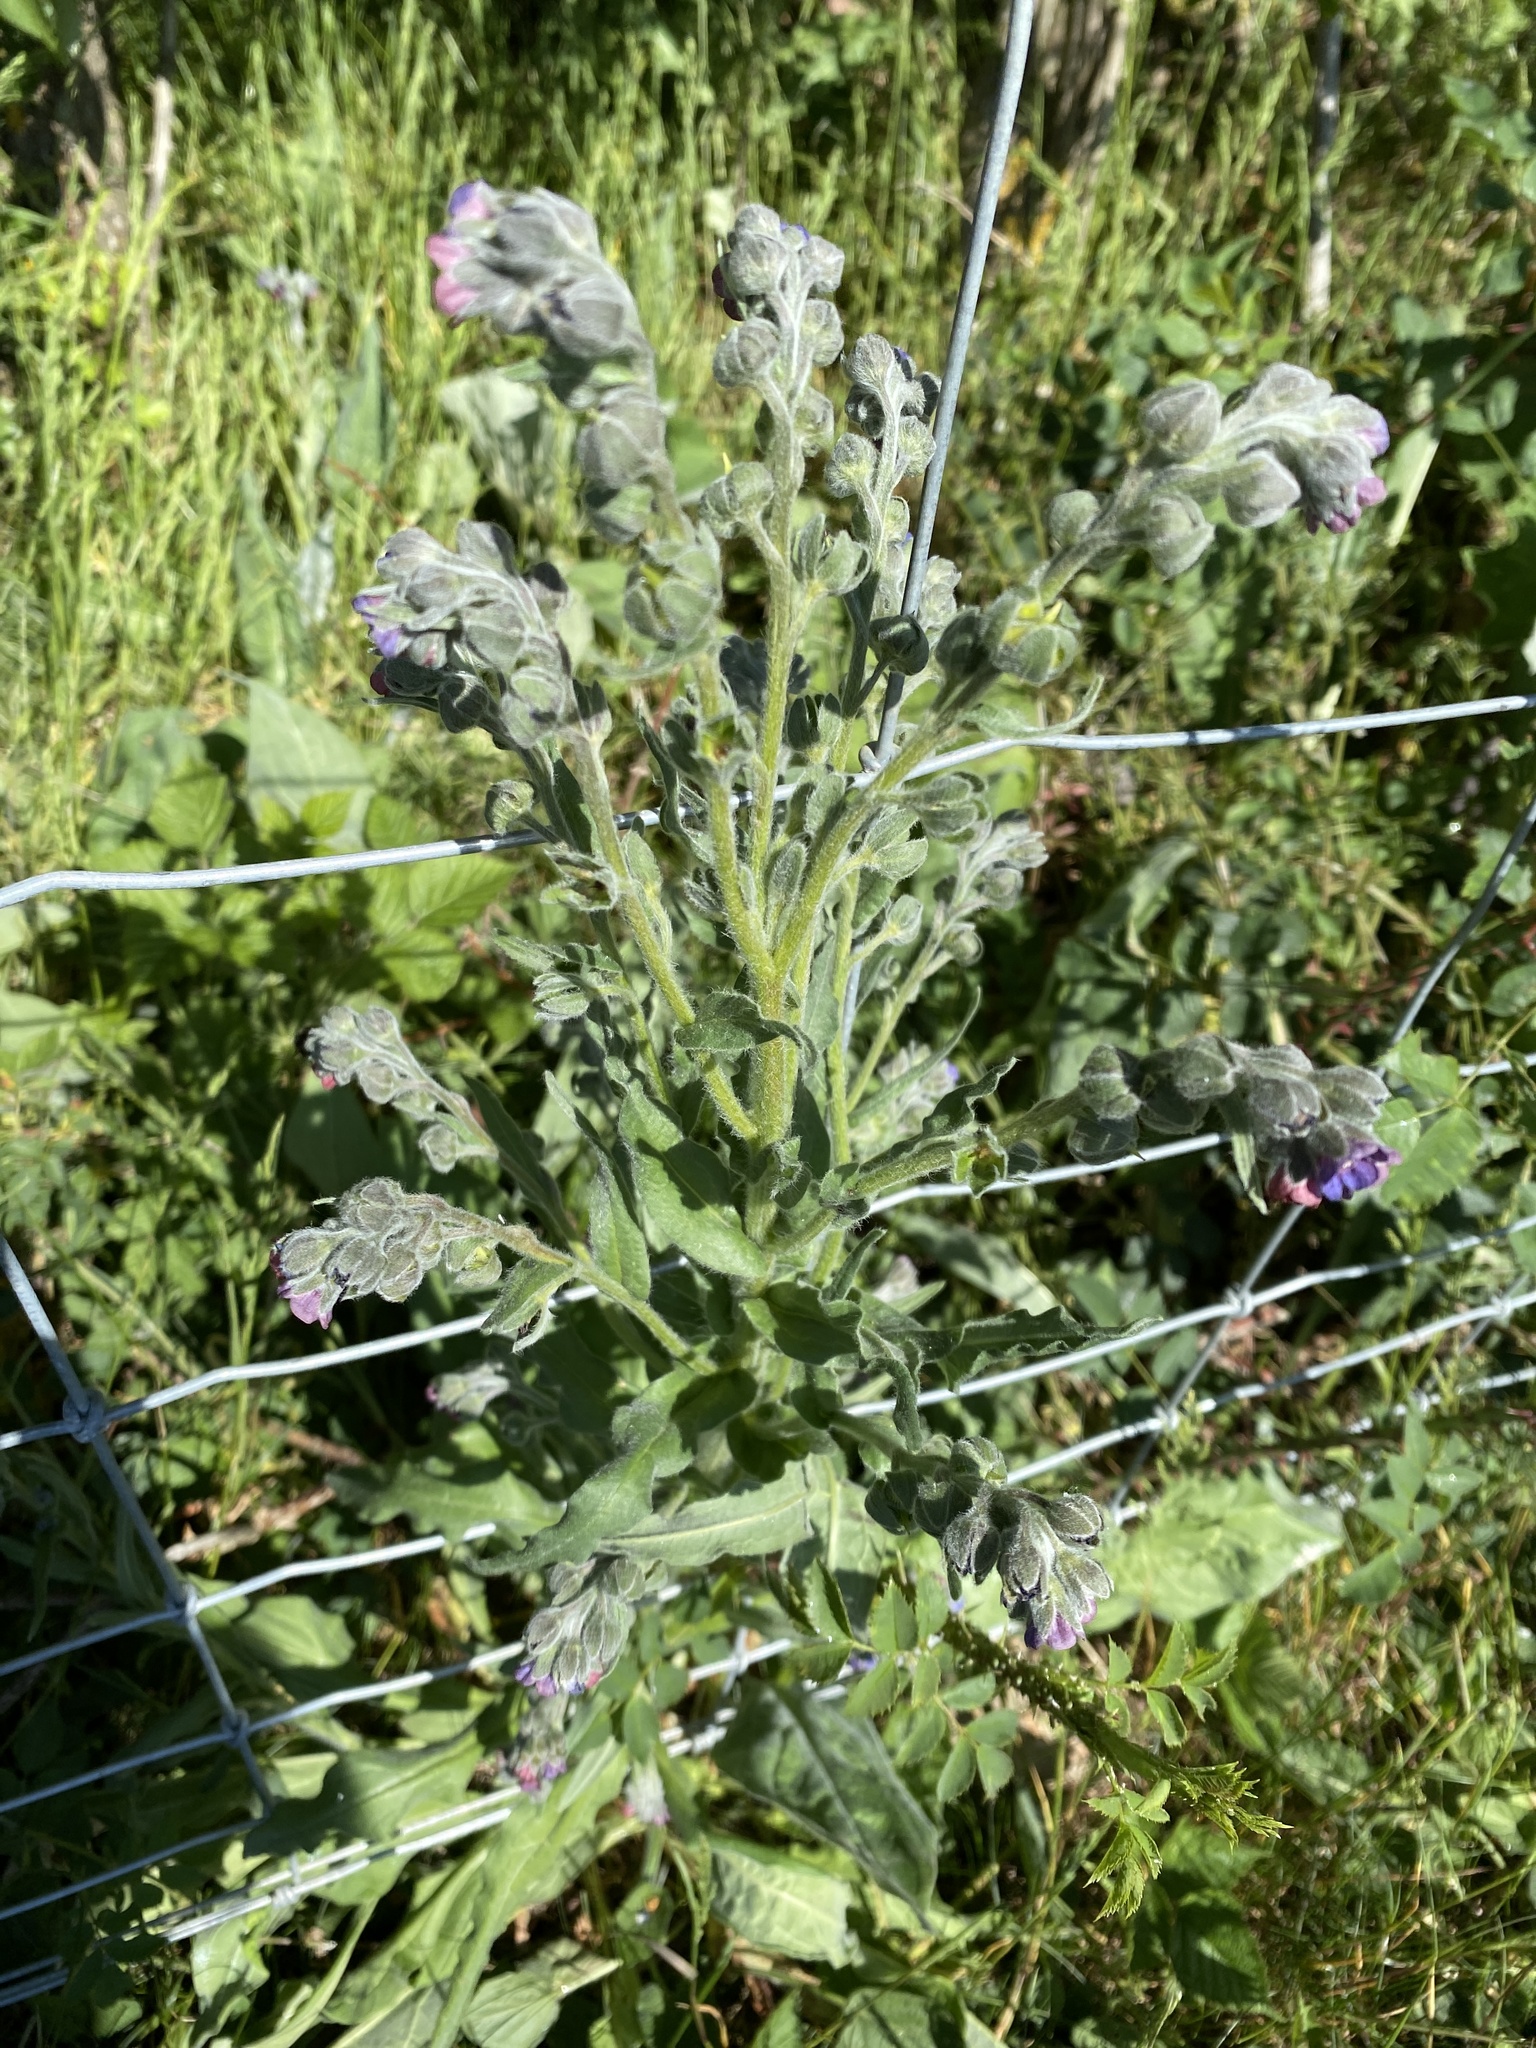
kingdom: Plantae
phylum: Tracheophyta
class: Magnoliopsida
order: Boraginales
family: Boraginaceae
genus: Cynoglossum
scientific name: Cynoglossum officinale
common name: Hound's-tongue
